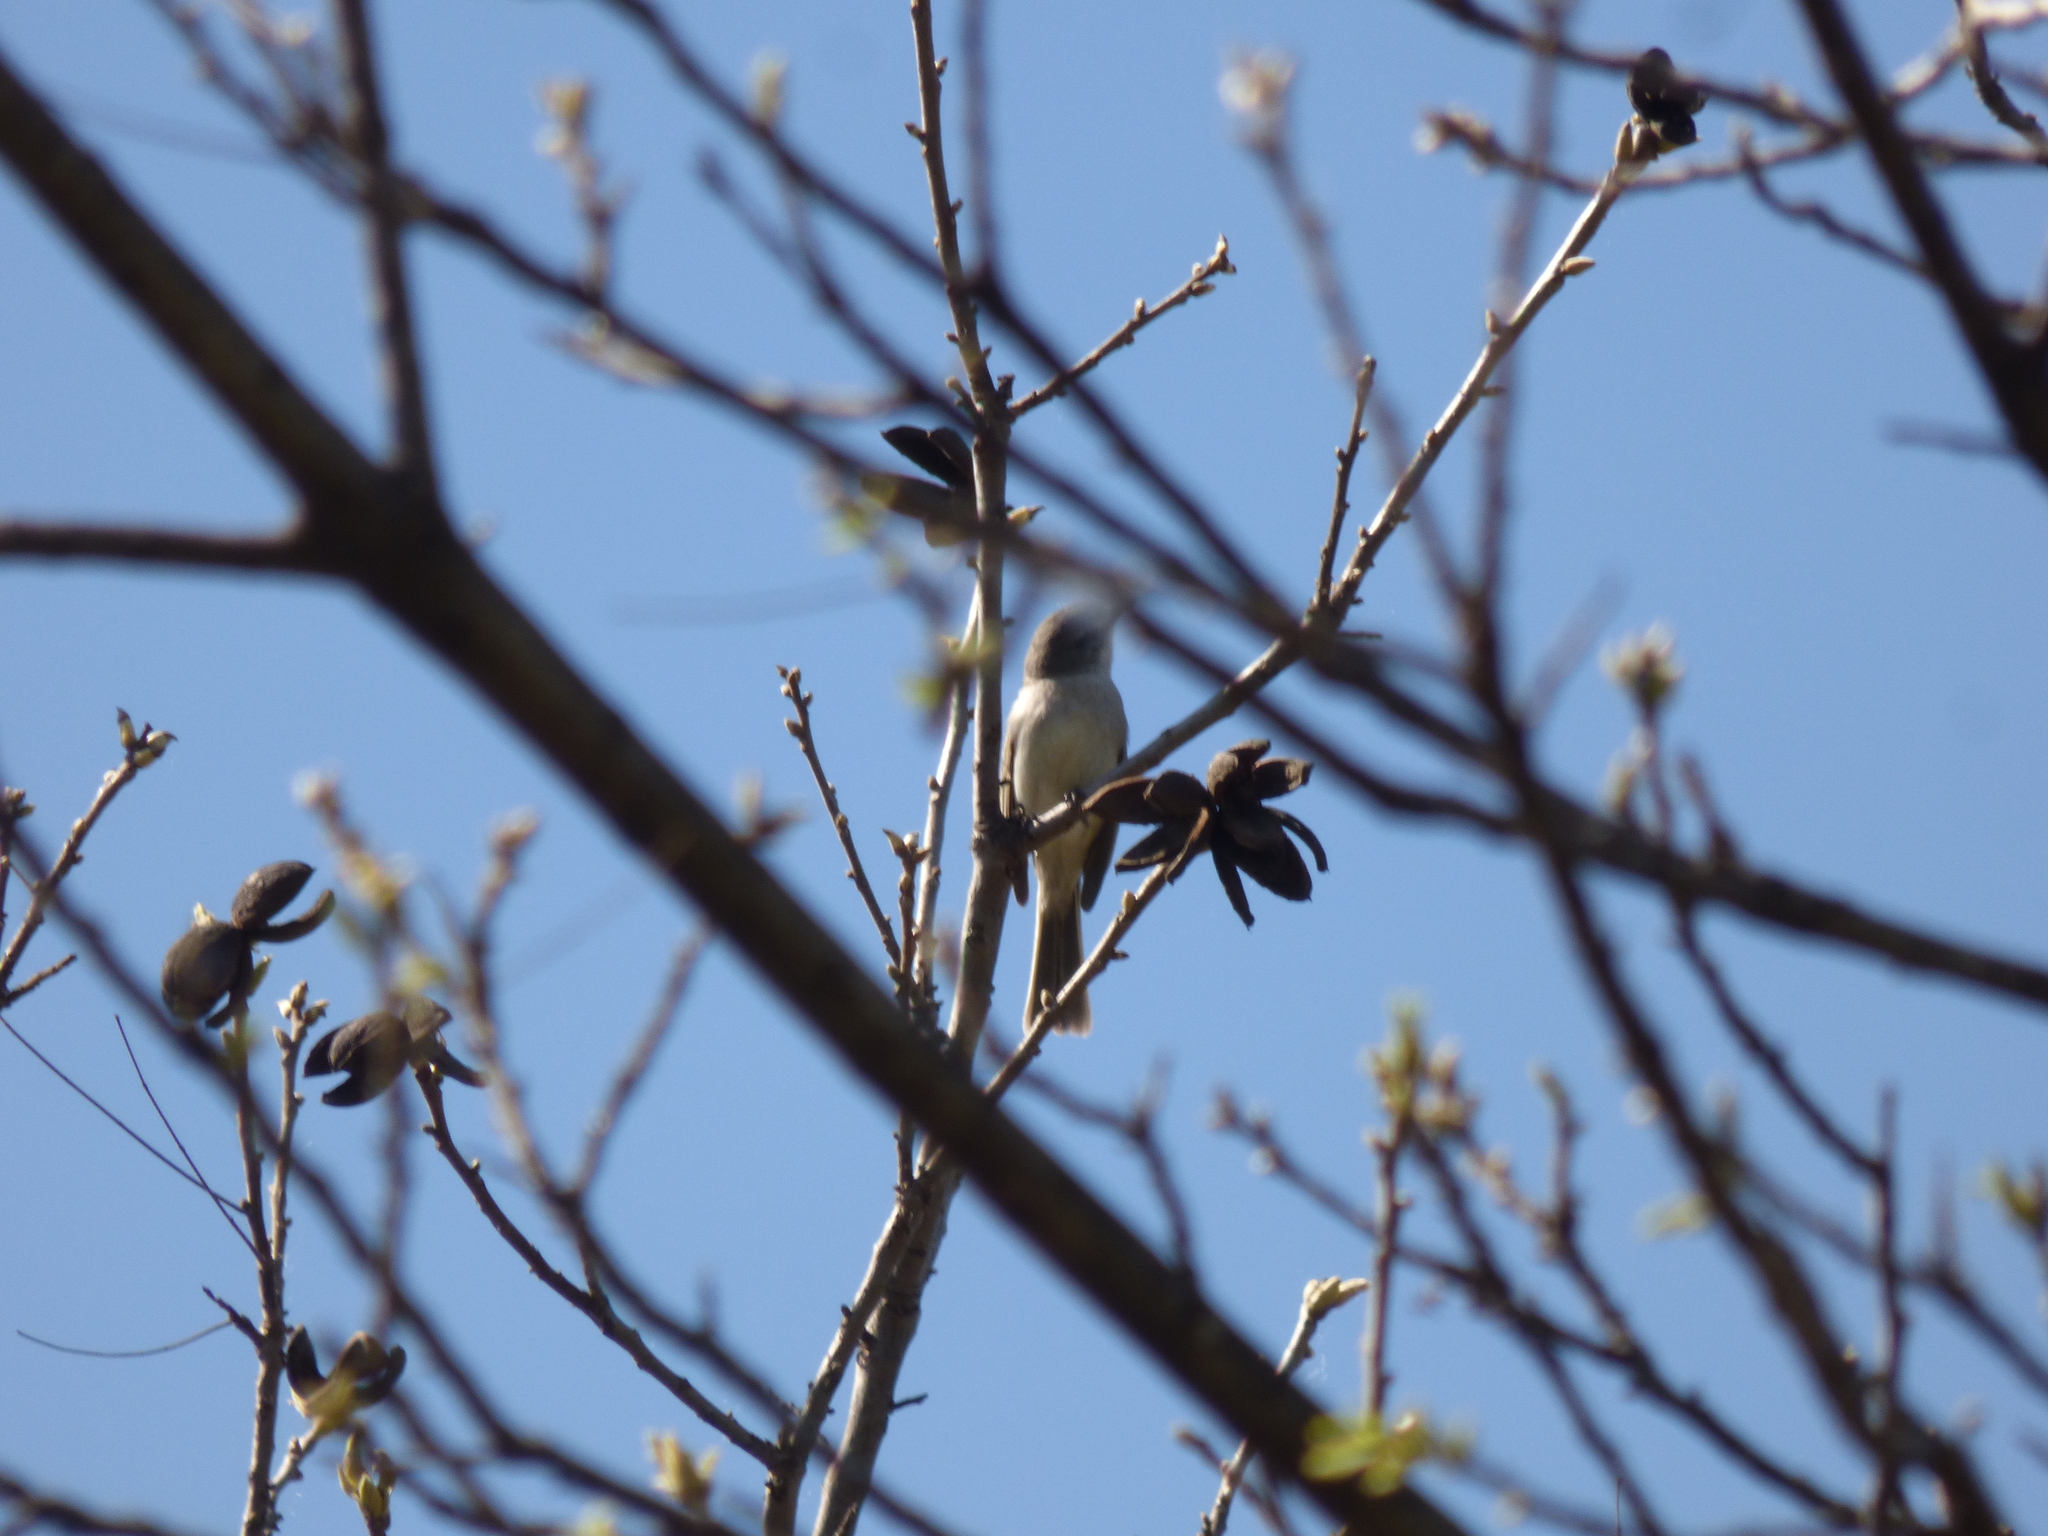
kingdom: Animalia
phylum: Chordata
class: Aves
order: Passeriformes
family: Tyrannidae
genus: Suiriri
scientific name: Suiriri suiriri
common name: Suiriri flycatcher
